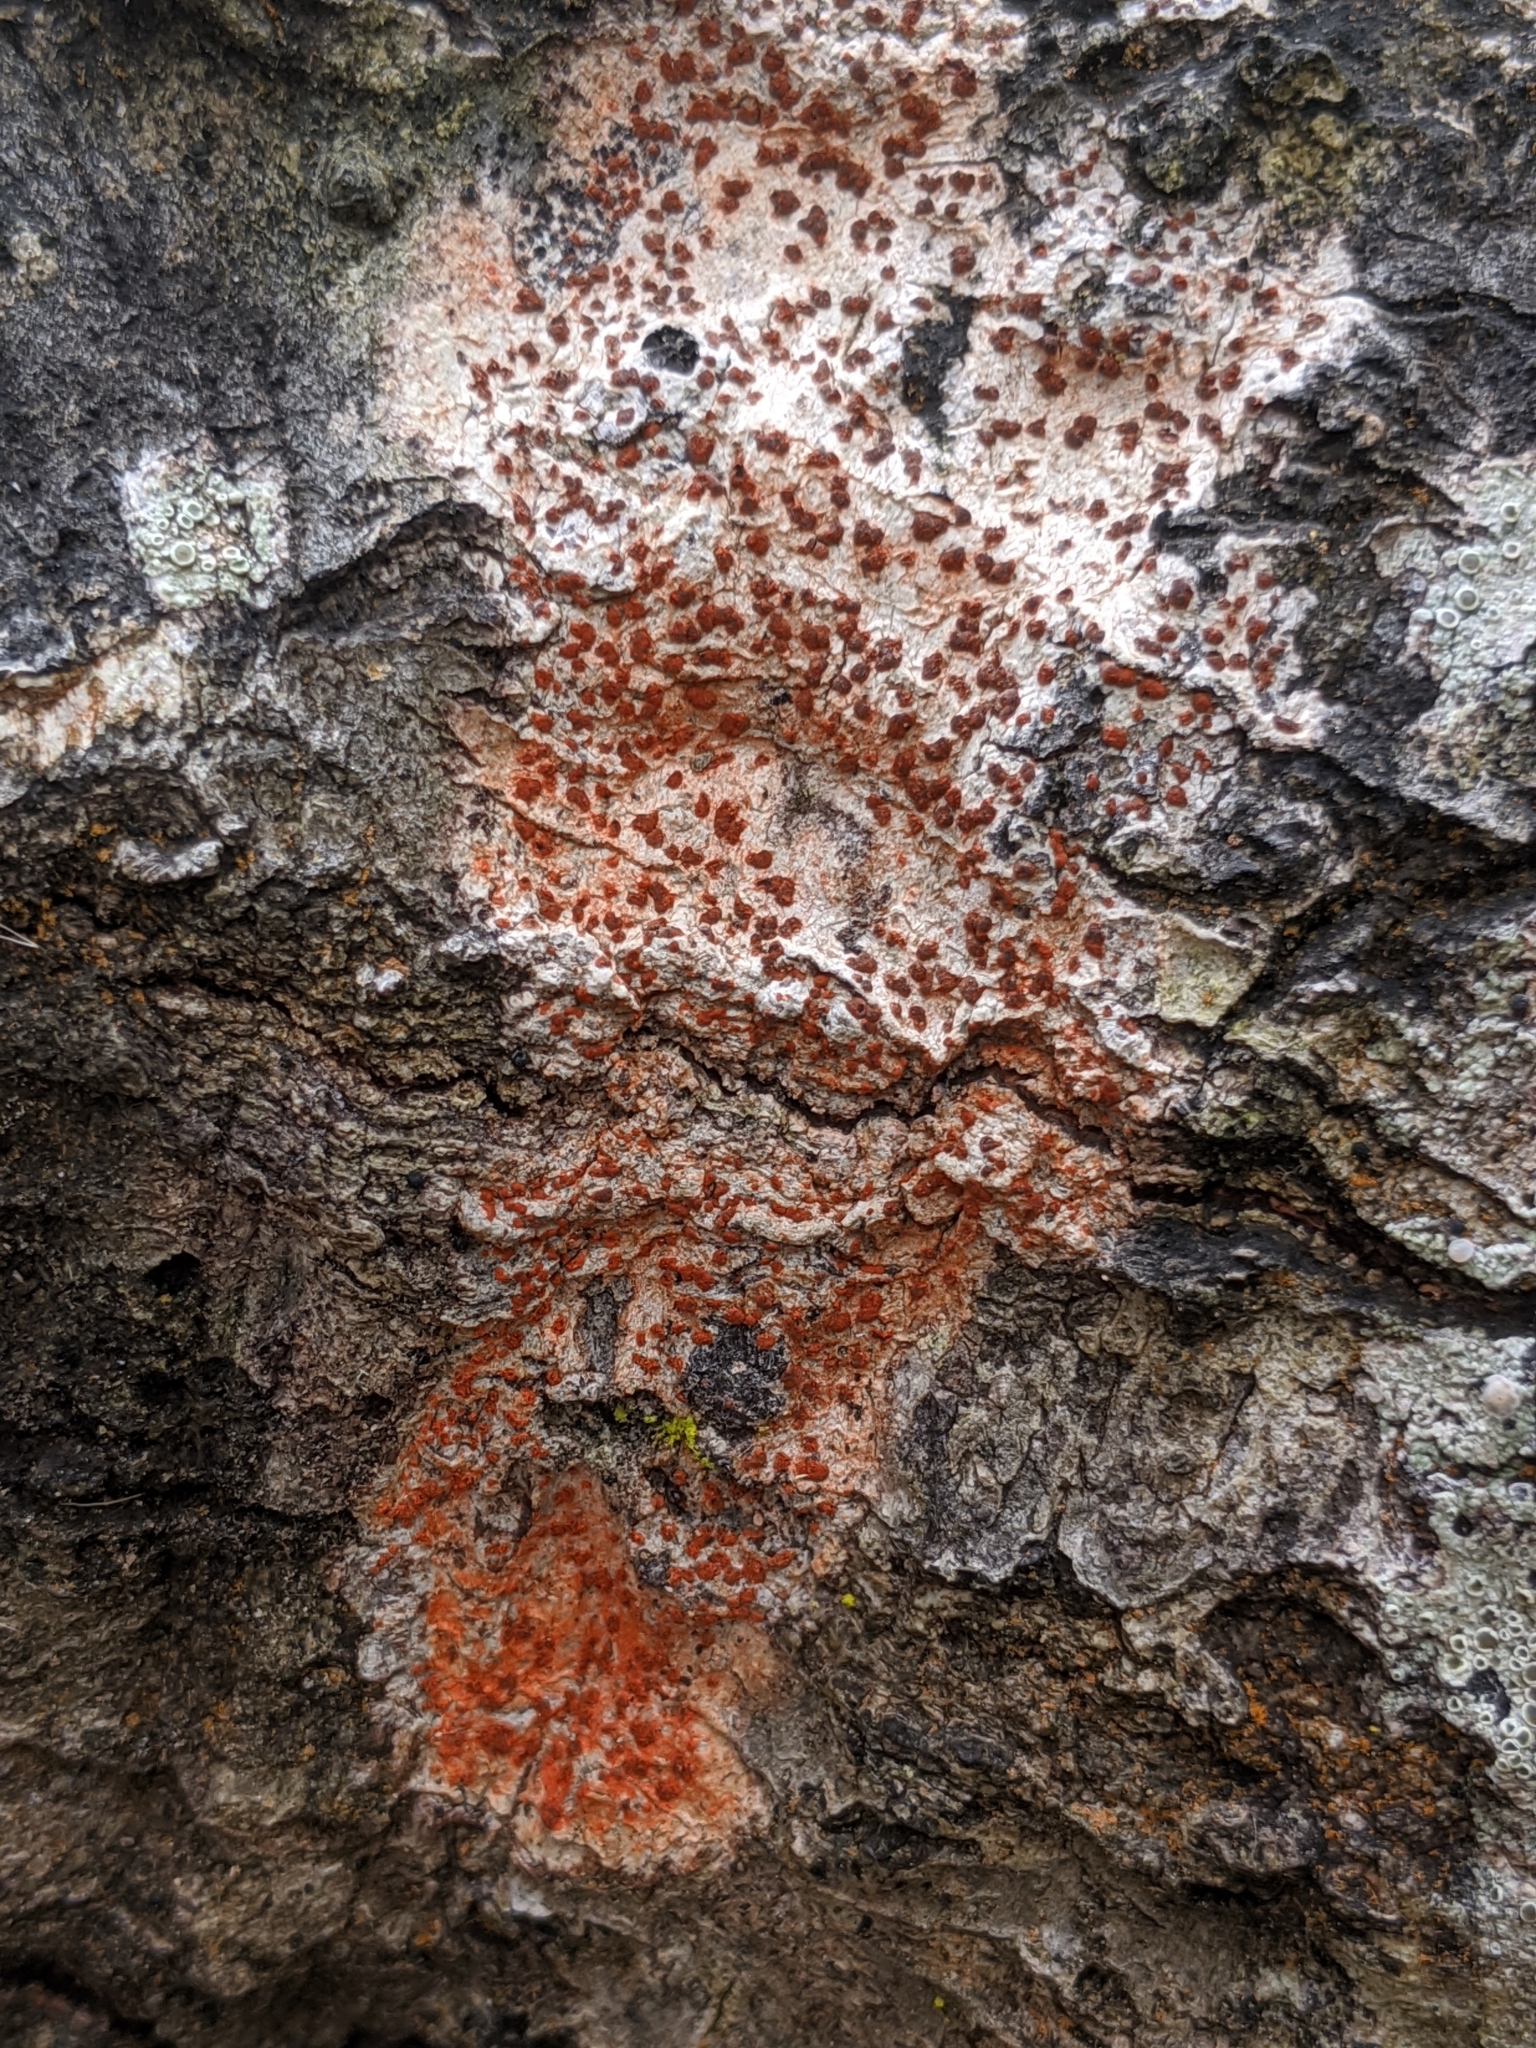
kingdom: Fungi
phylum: Ascomycota
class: Arthoniomycetes
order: Arthoniales
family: Arthoniaceae
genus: Coniocarpon
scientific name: Coniocarpon cinnabarinum
